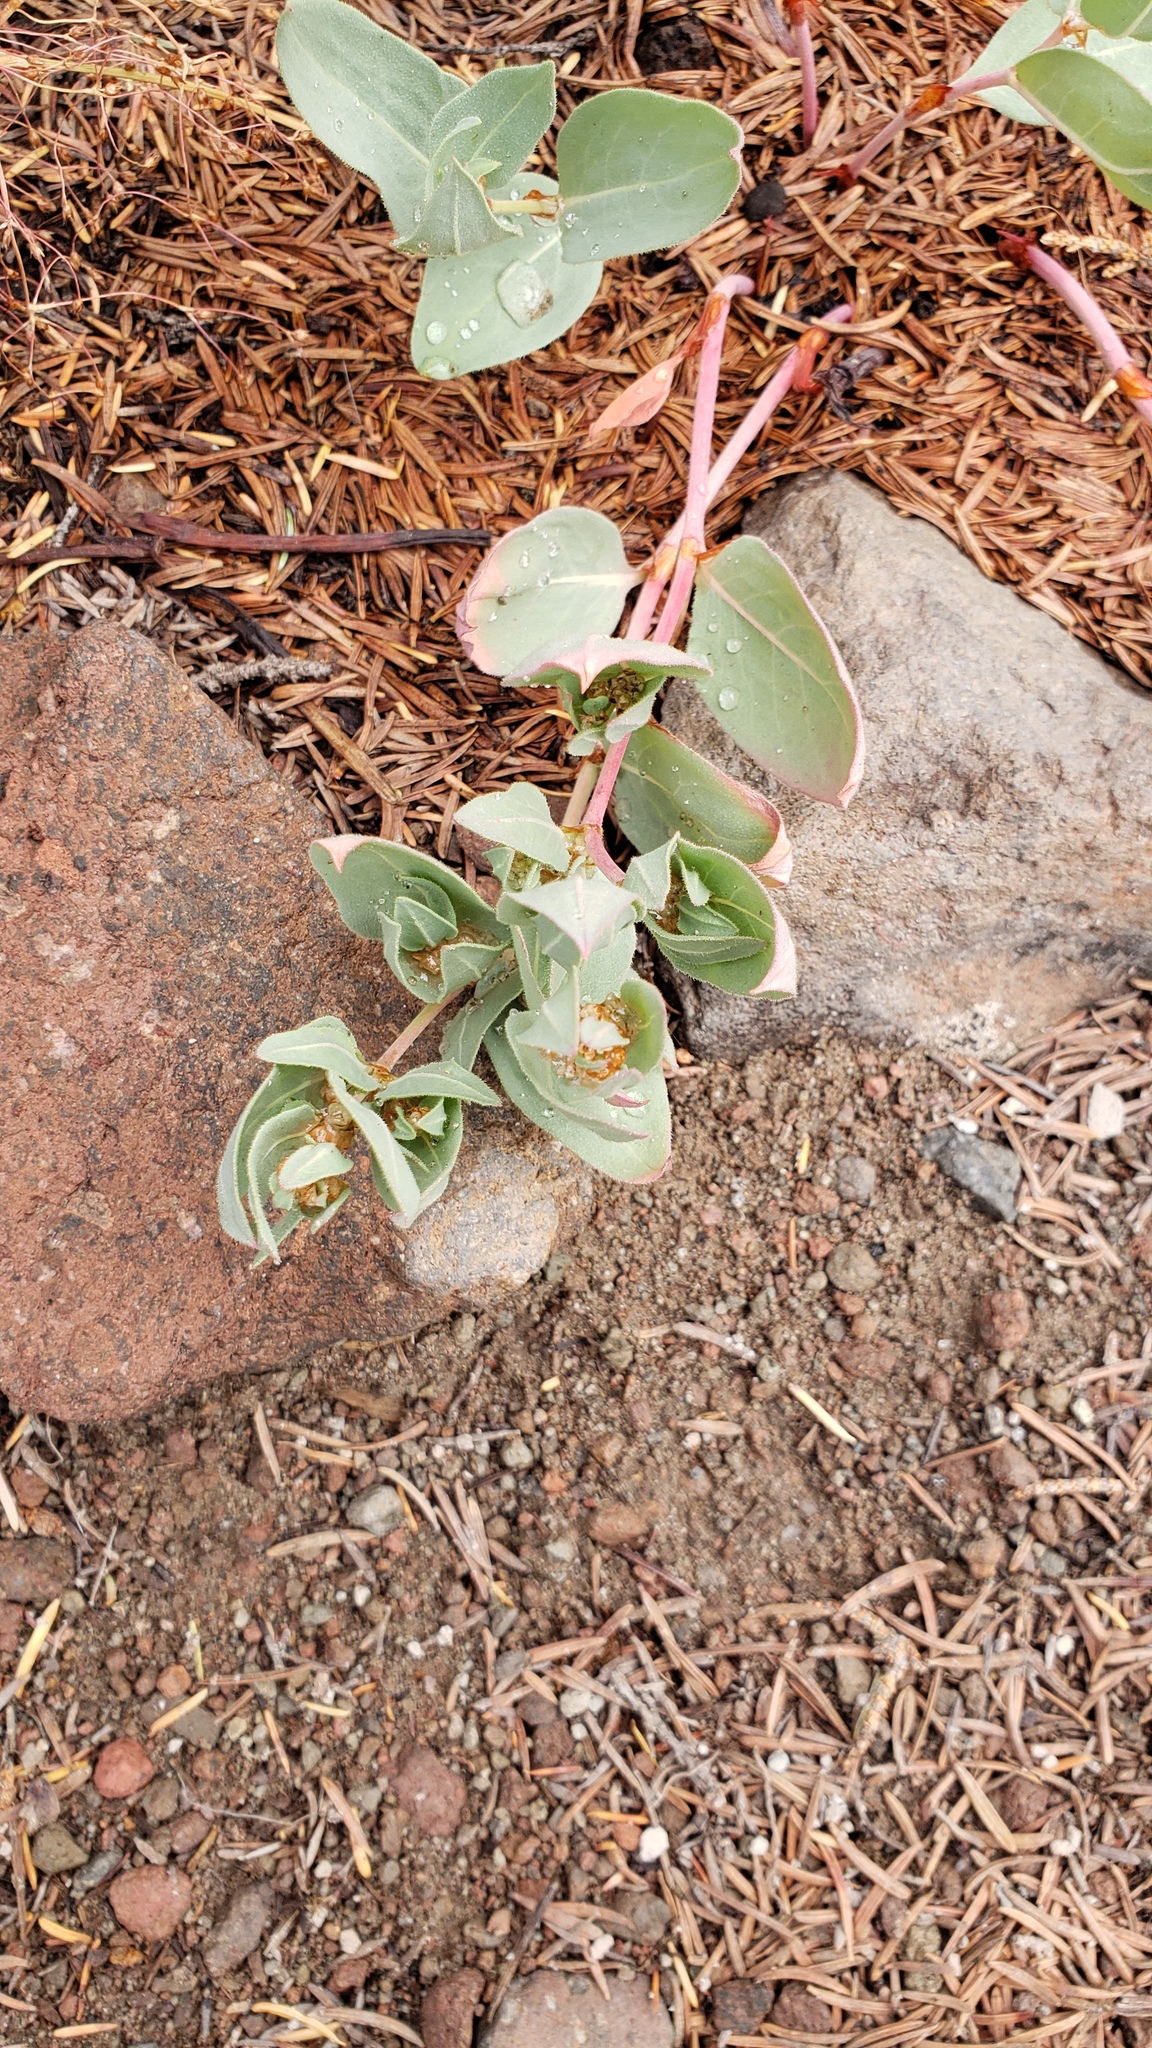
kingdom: Plantae
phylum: Tracheophyta
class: Magnoliopsida
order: Caryophyllales
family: Polygonaceae
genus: Koenigia
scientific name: Koenigia davisiae
